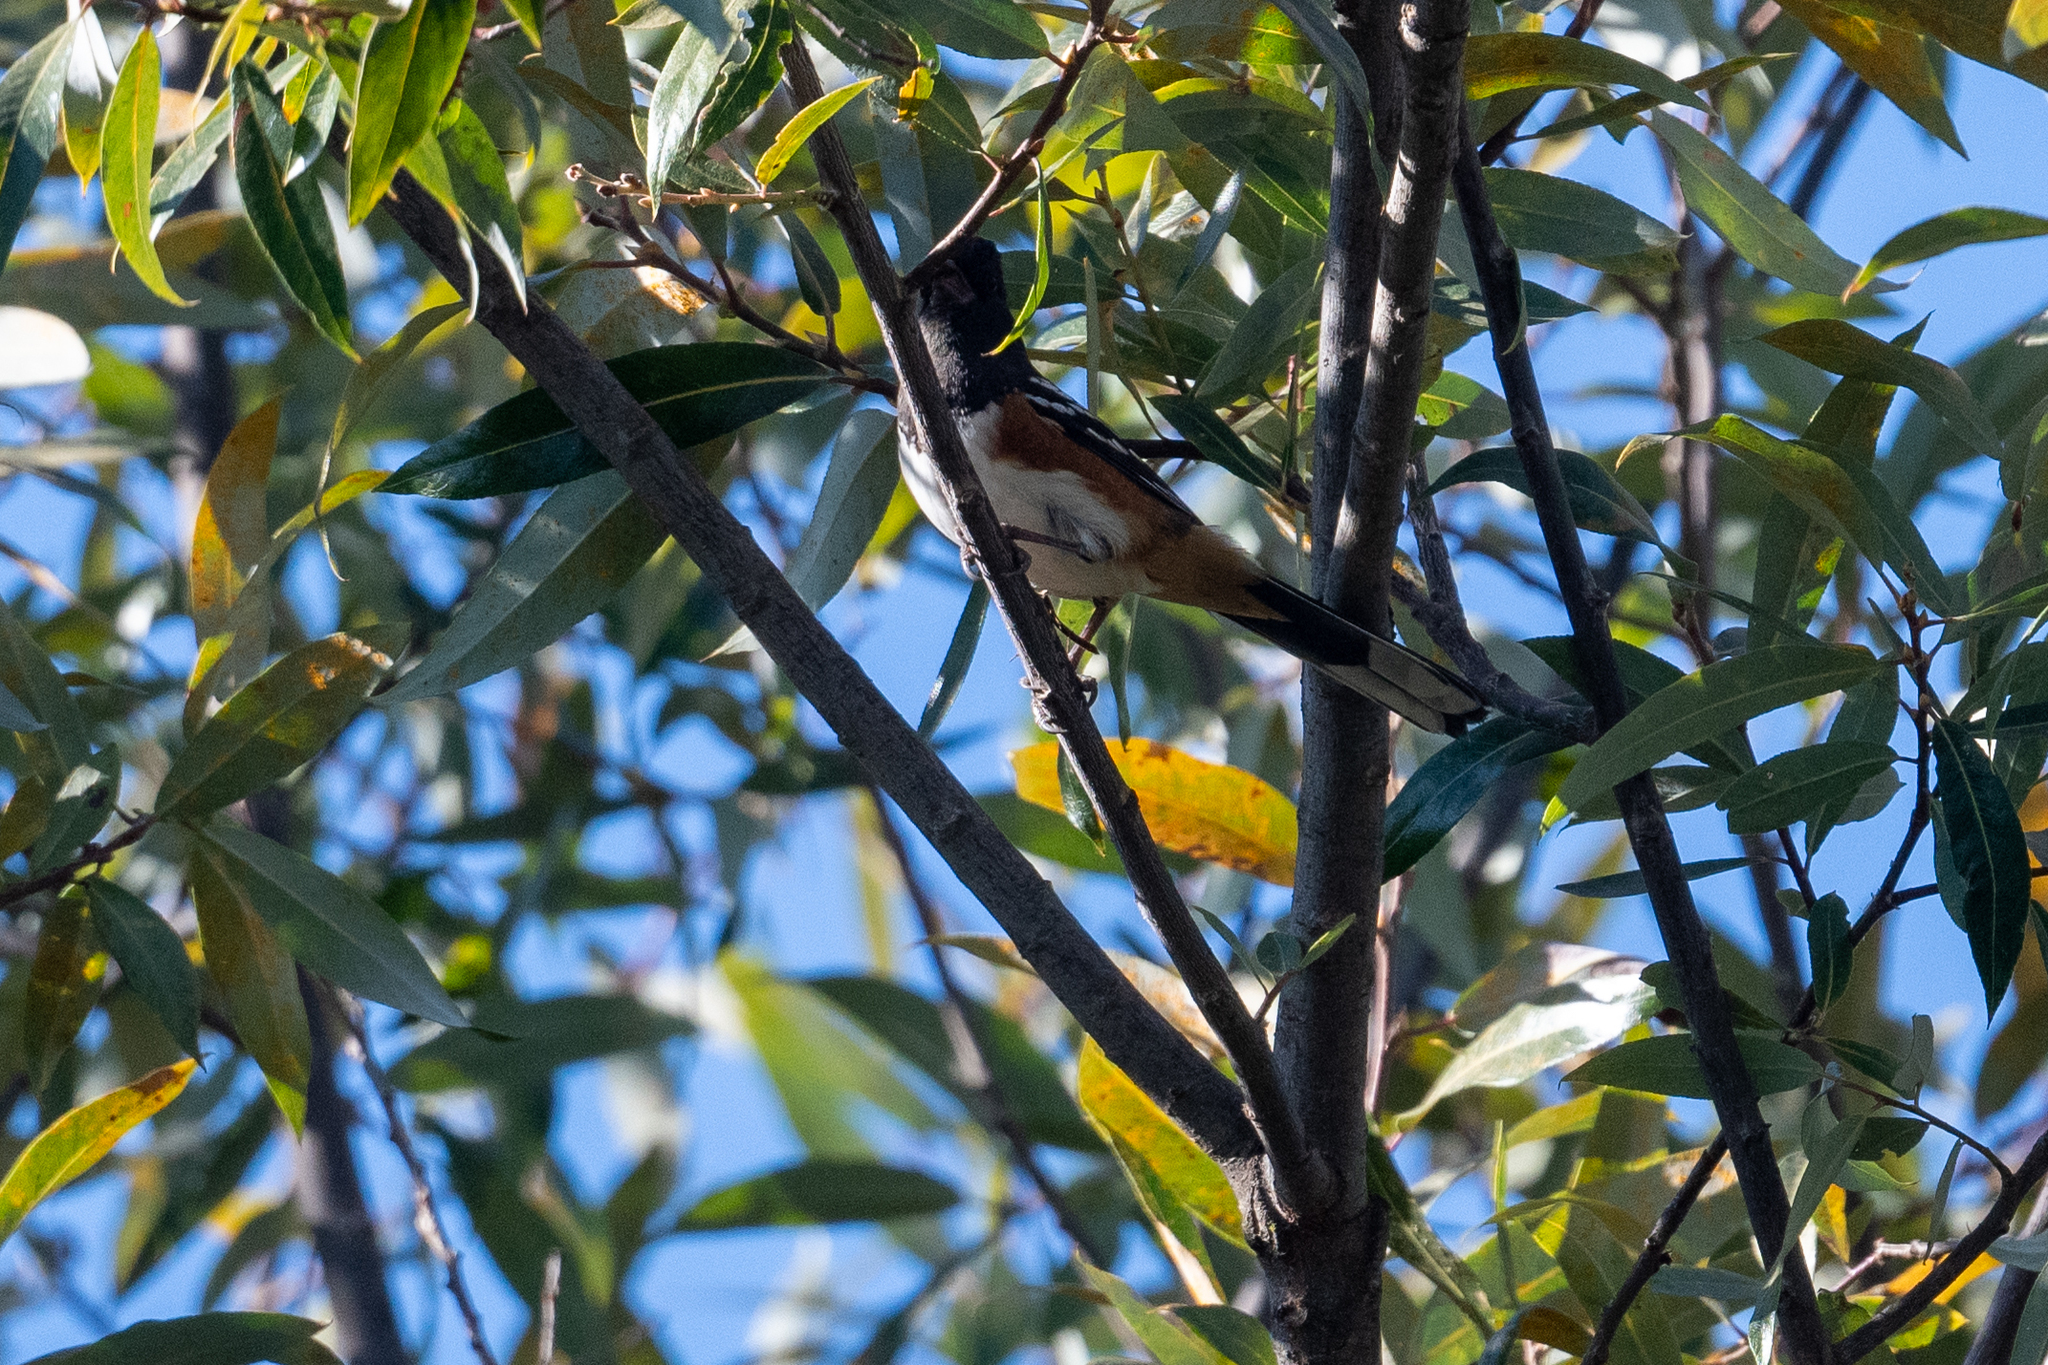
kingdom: Animalia
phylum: Chordata
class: Aves
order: Passeriformes
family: Passerellidae
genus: Pipilo
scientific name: Pipilo maculatus
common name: Spotted towhee
